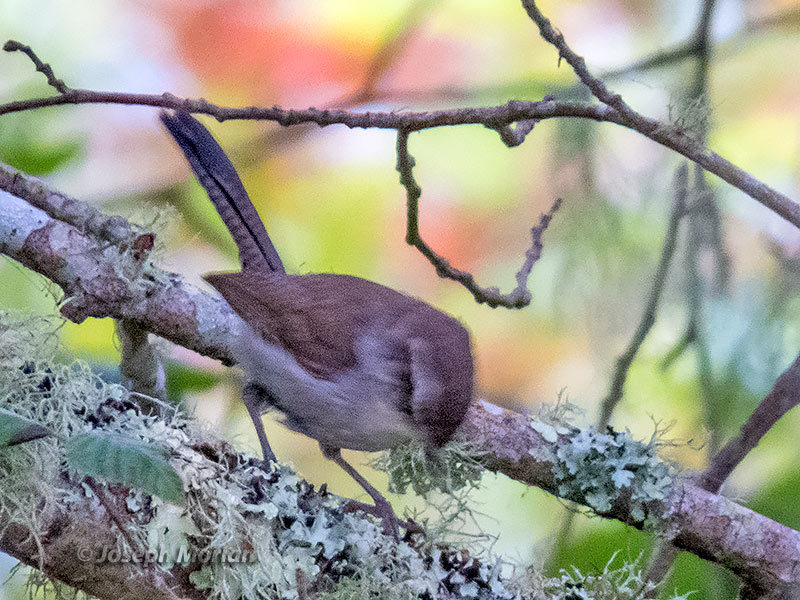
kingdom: Animalia
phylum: Chordata
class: Aves
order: Passeriformes
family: Troglodytidae
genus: Thryomanes
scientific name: Thryomanes bewickii
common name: Bewick's wren
